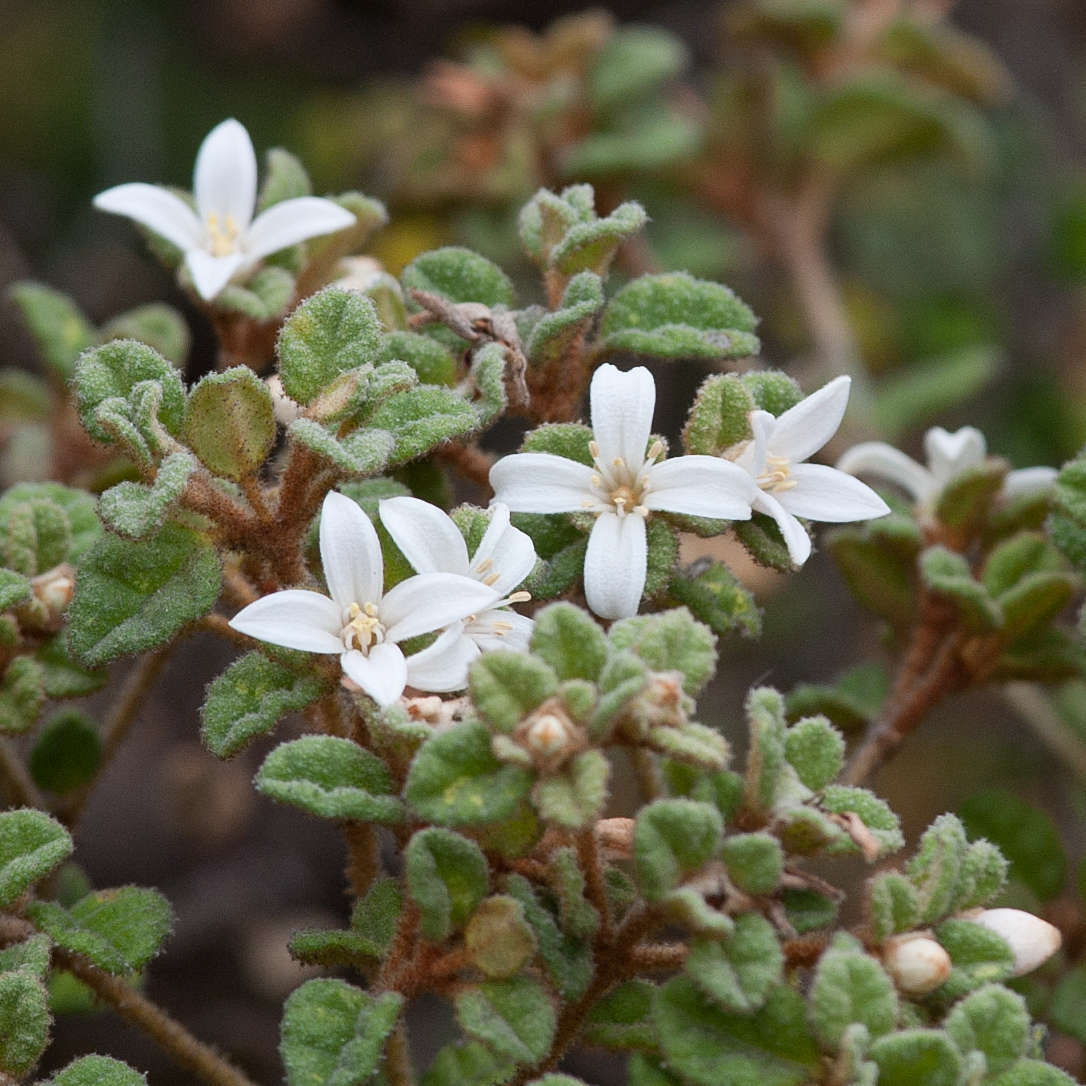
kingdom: Plantae
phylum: Tracheophyta
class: Magnoliopsida
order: Sapindales
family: Rutaceae
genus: Correa
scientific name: Correa alba
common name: White correa
